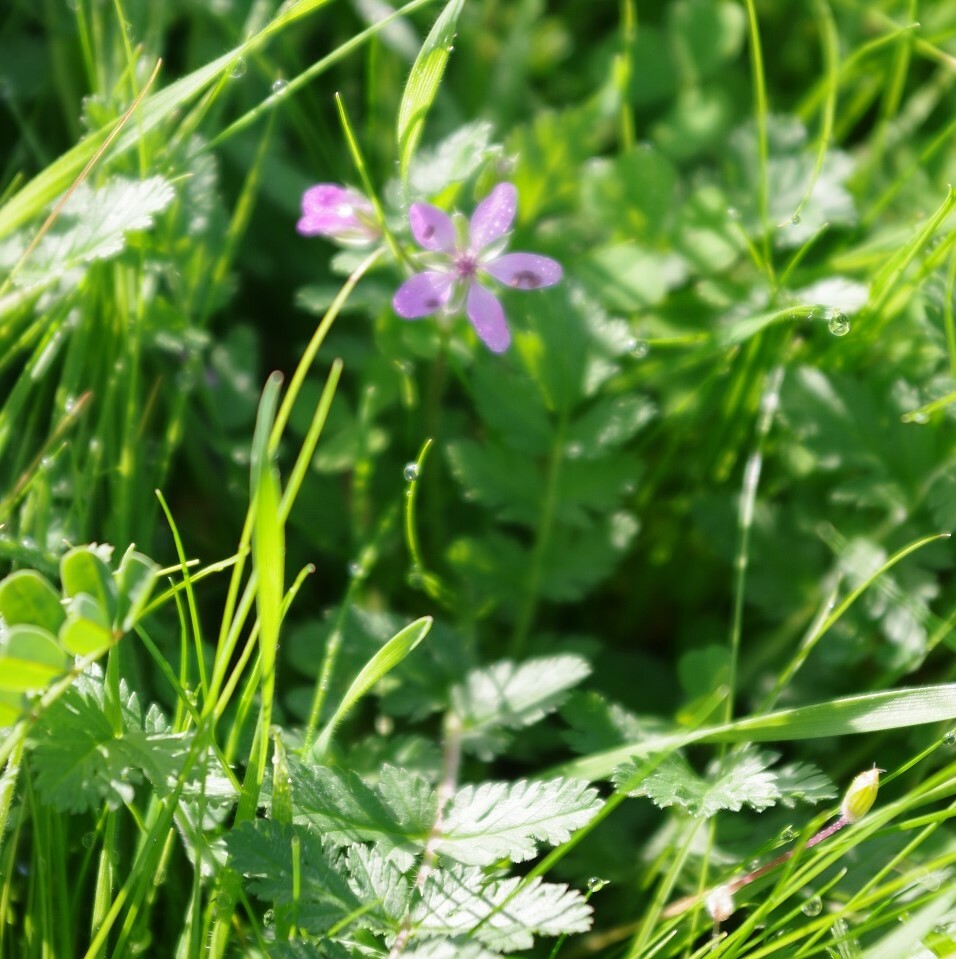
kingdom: Plantae
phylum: Tracheophyta
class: Magnoliopsida
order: Geraniales
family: Geraniaceae
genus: Erodium
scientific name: Erodium cicutarium
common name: Common stork's-bill
